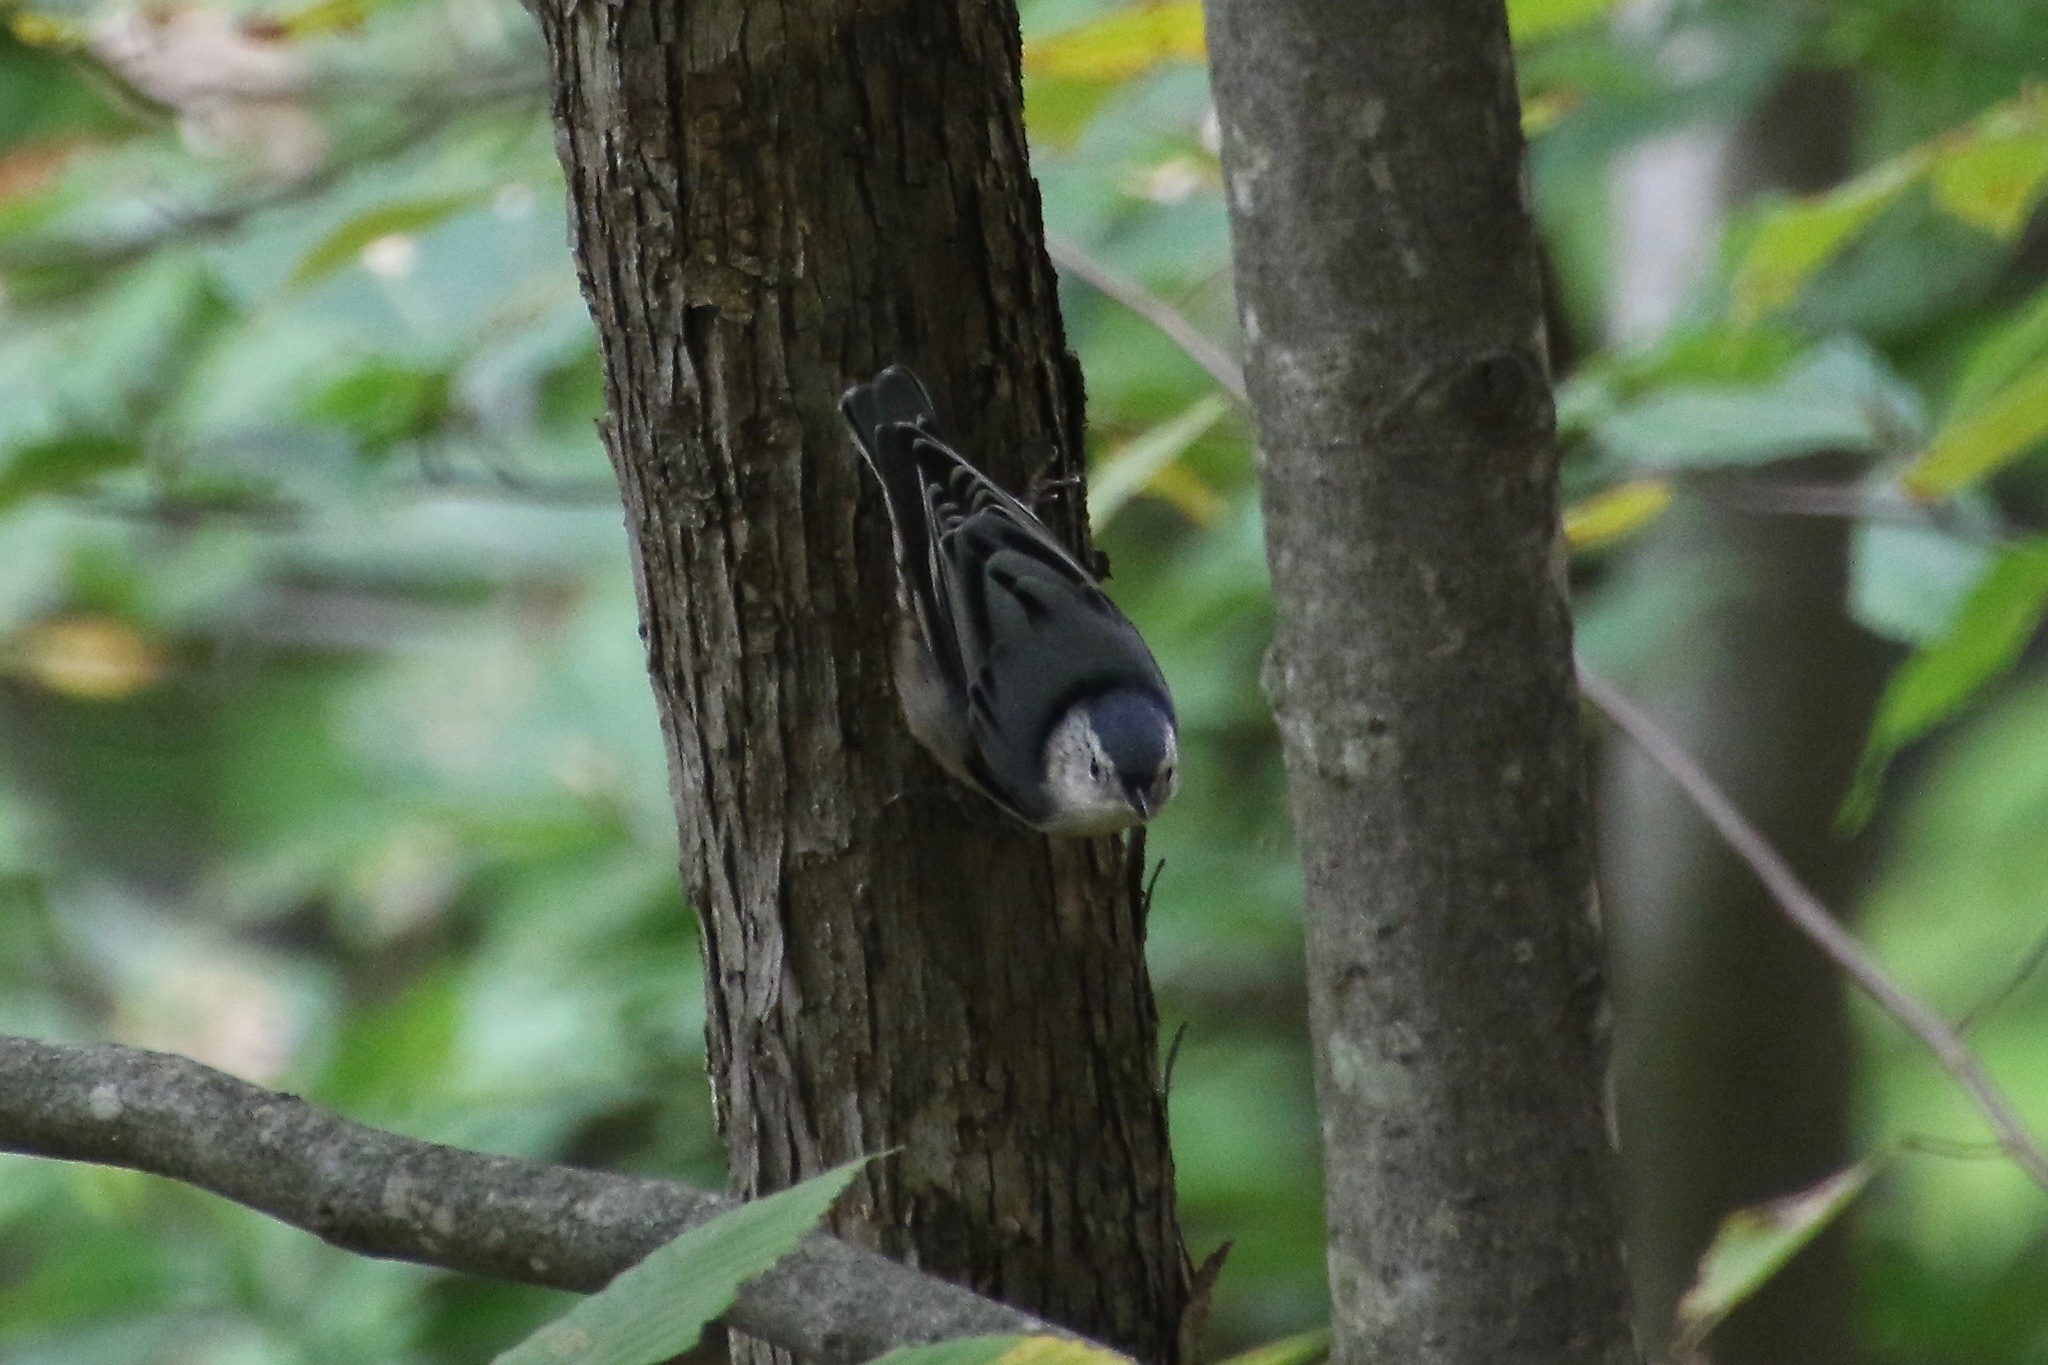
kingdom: Animalia
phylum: Chordata
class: Aves
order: Passeriformes
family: Sittidae
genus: Sitta
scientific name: Sitta carolinensis
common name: White-breasted nuthatch
